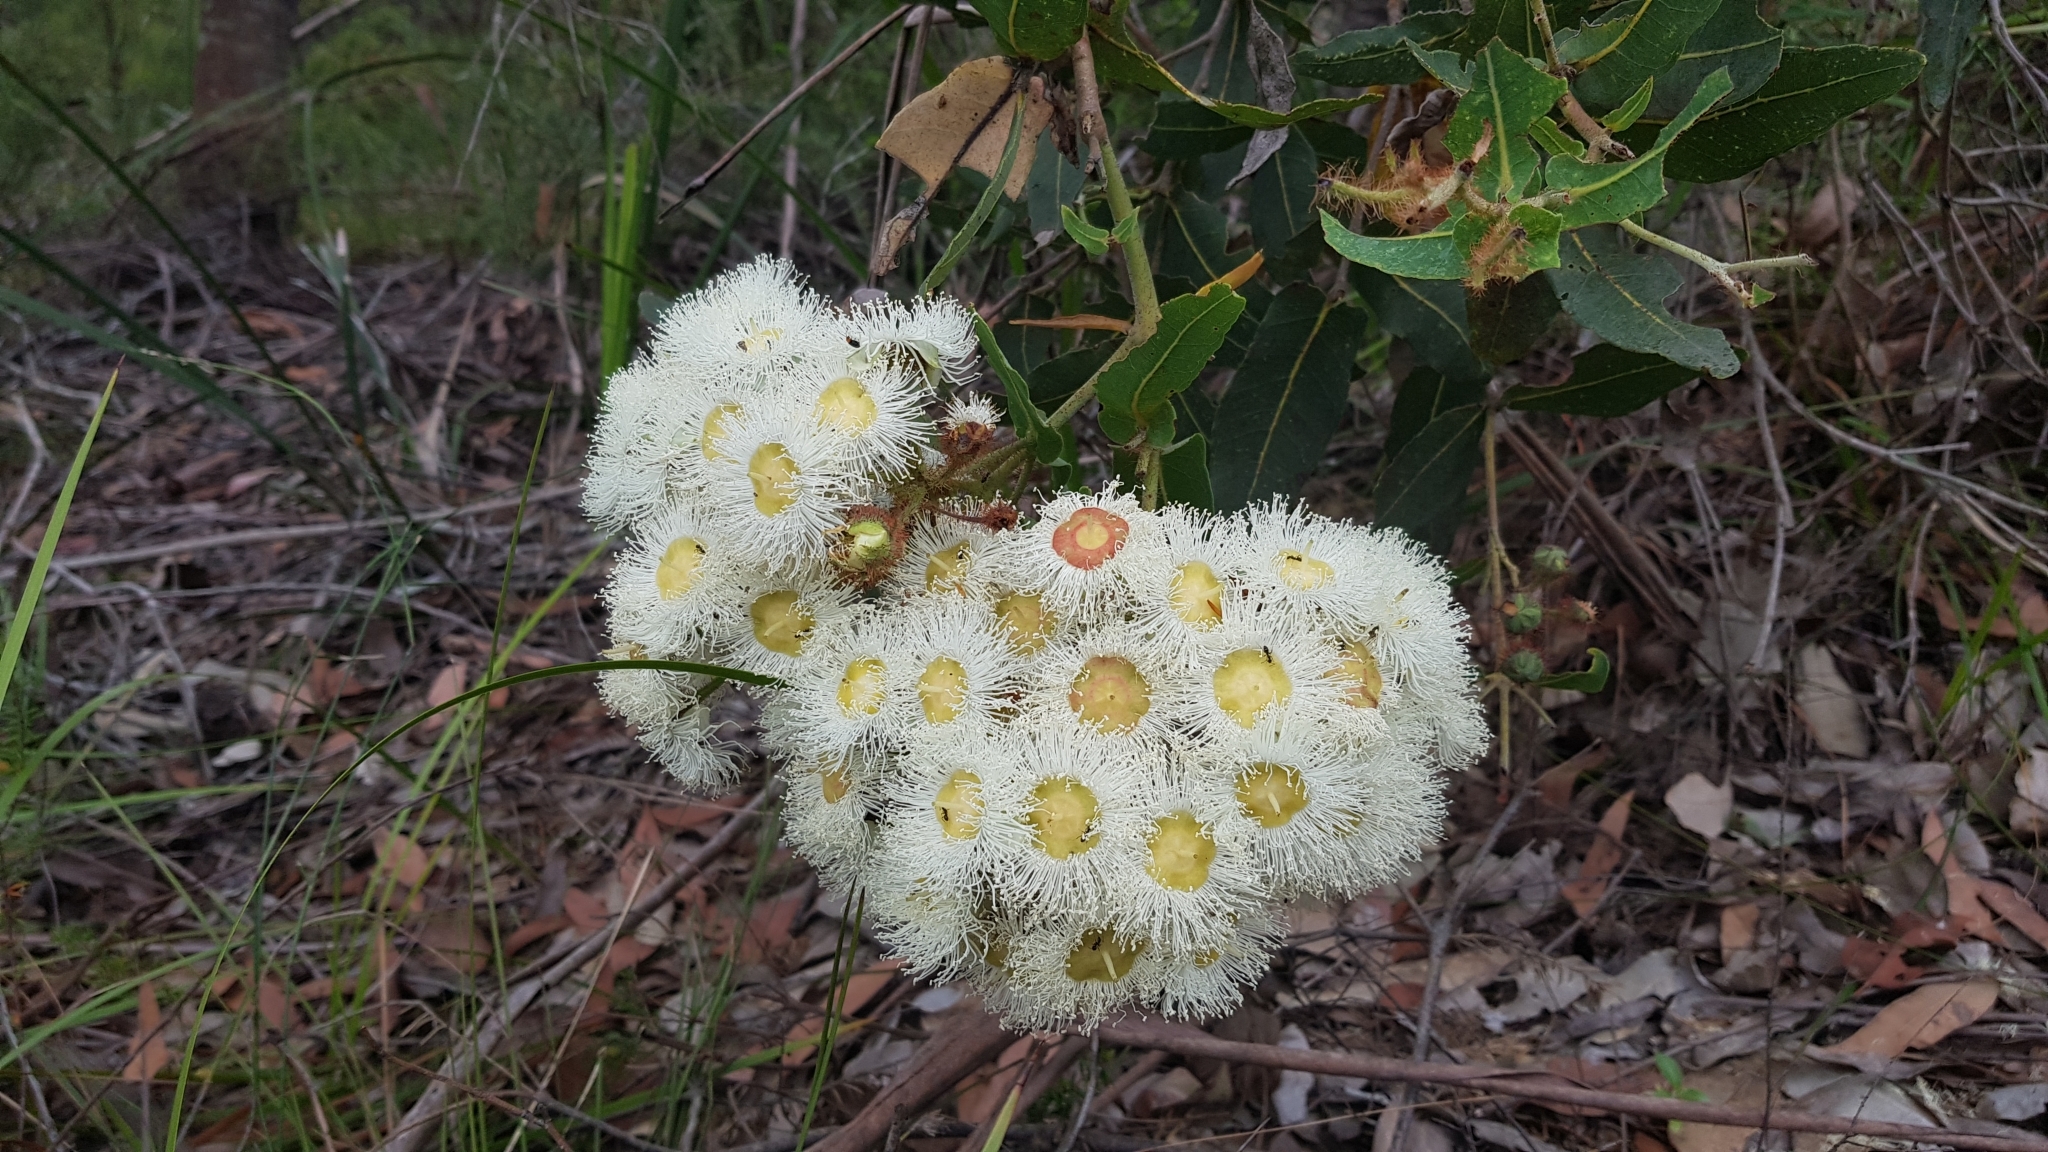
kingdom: Plantae
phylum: Tracheophyta
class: Magnoliopsida
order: Myrtales
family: Myrtaceae
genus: Angophora
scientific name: Angophora hispida
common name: Dwarf-apple
